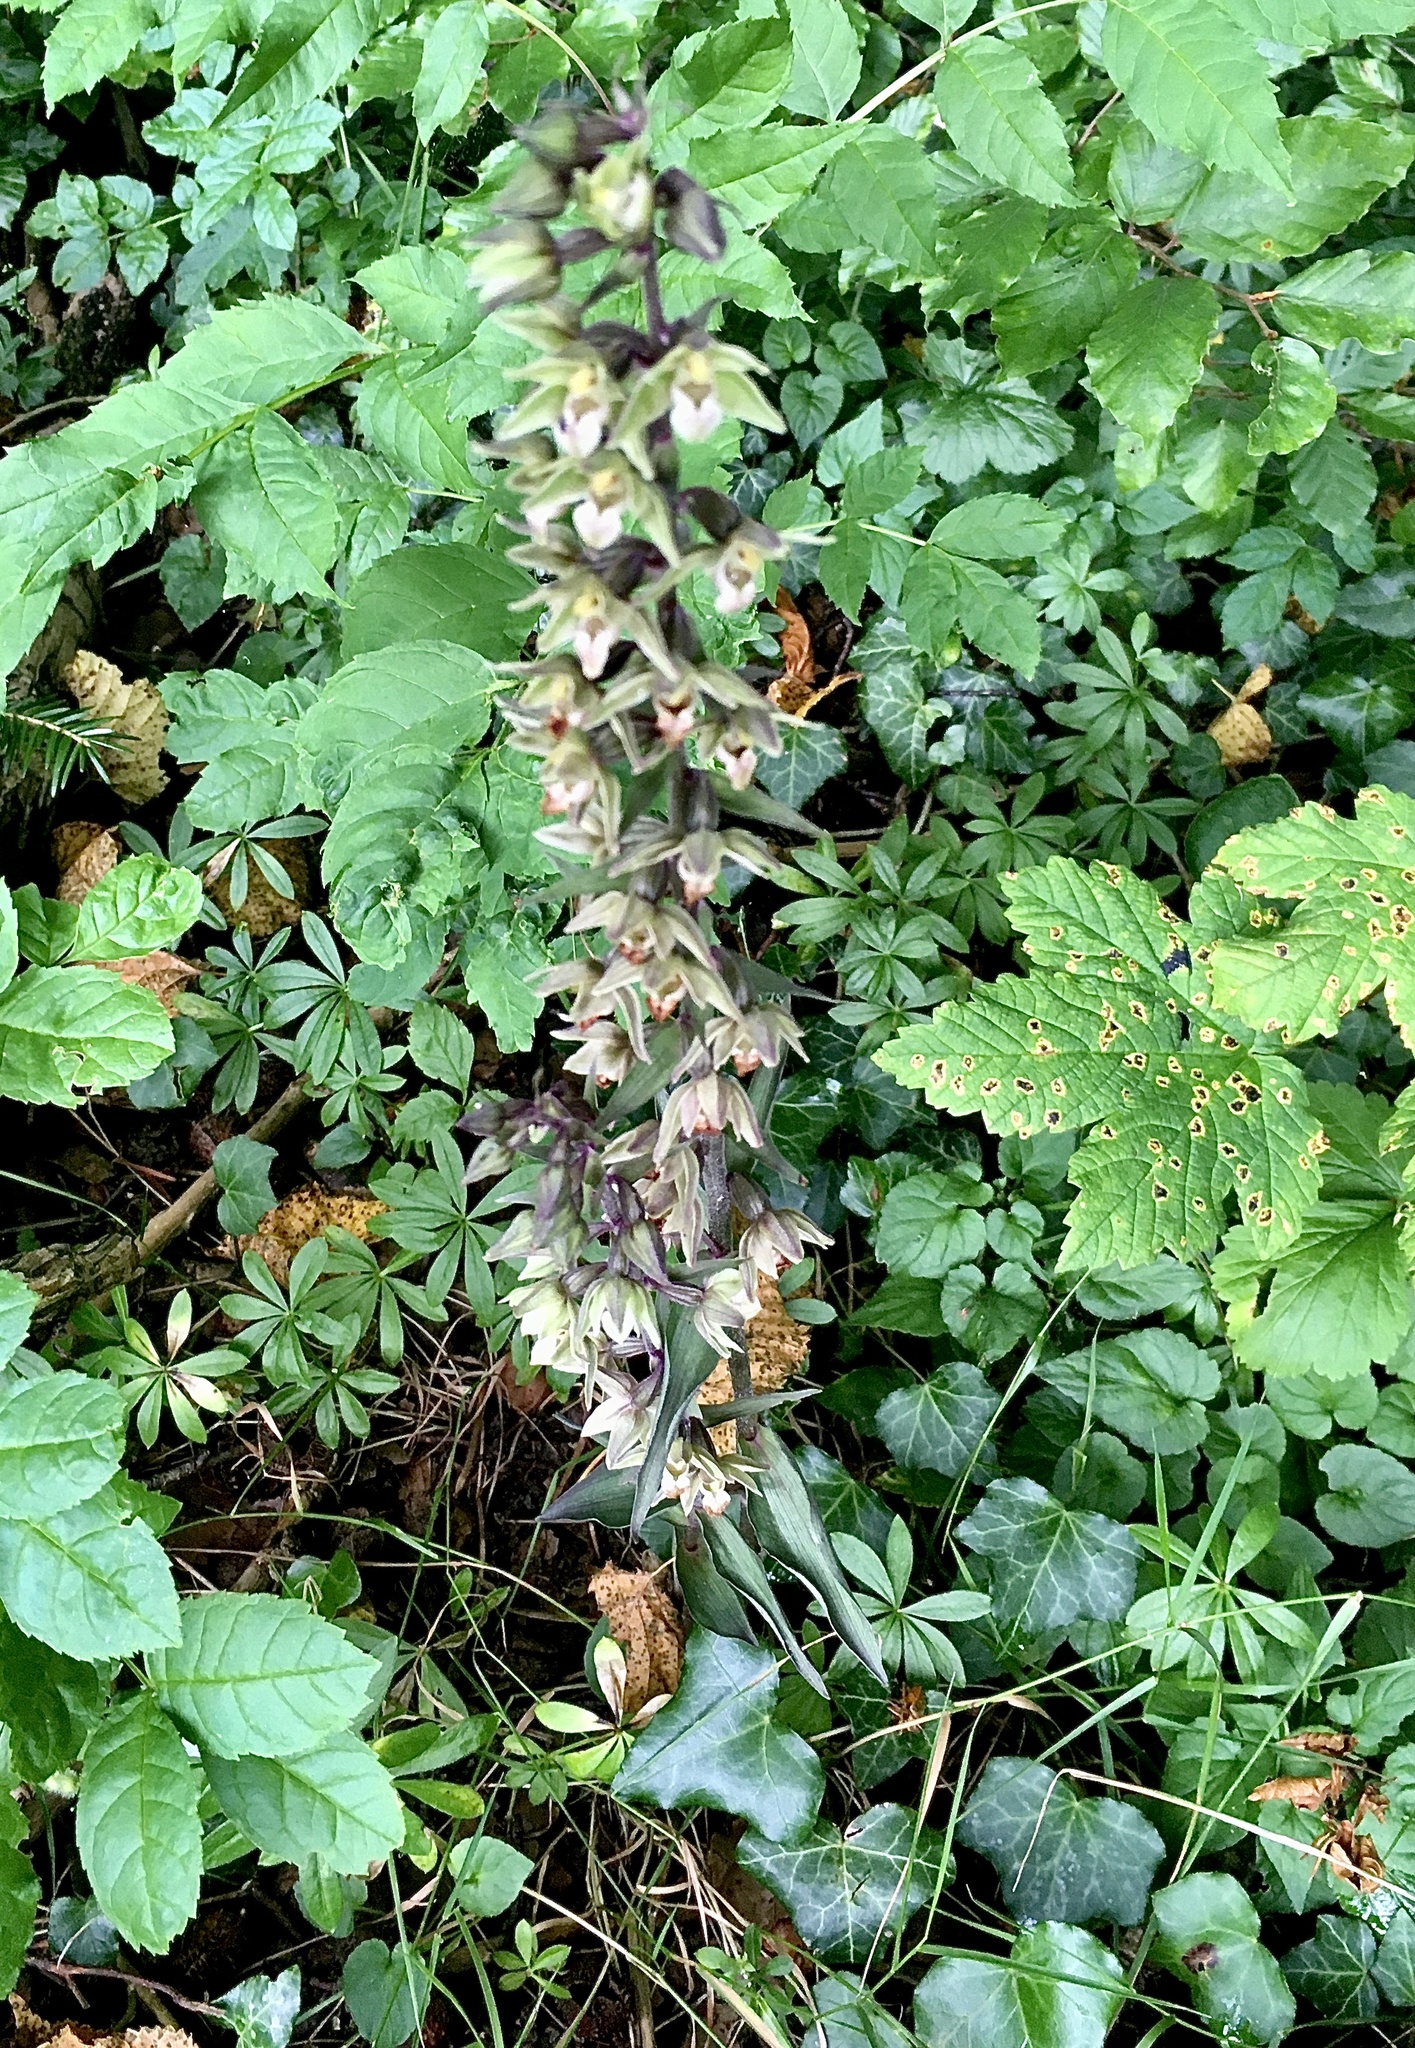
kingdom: Plantae
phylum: Tracheophyta
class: Liliopsida
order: Asparagales
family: Orchidaceae
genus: Epipactis
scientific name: Epipactis purpurata
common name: Violet helleborine
